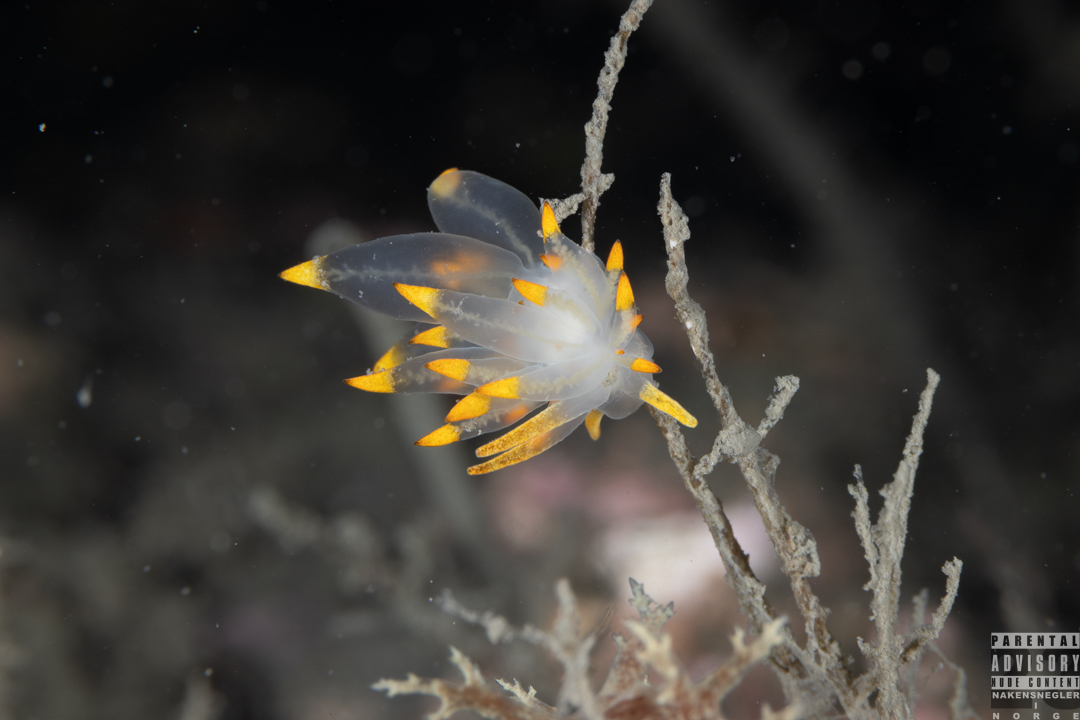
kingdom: Animalia
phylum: Mollusca
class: Gastropoda
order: Nudibranchia
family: Eubranchidae
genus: Amphorina
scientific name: Amphorina farrani
